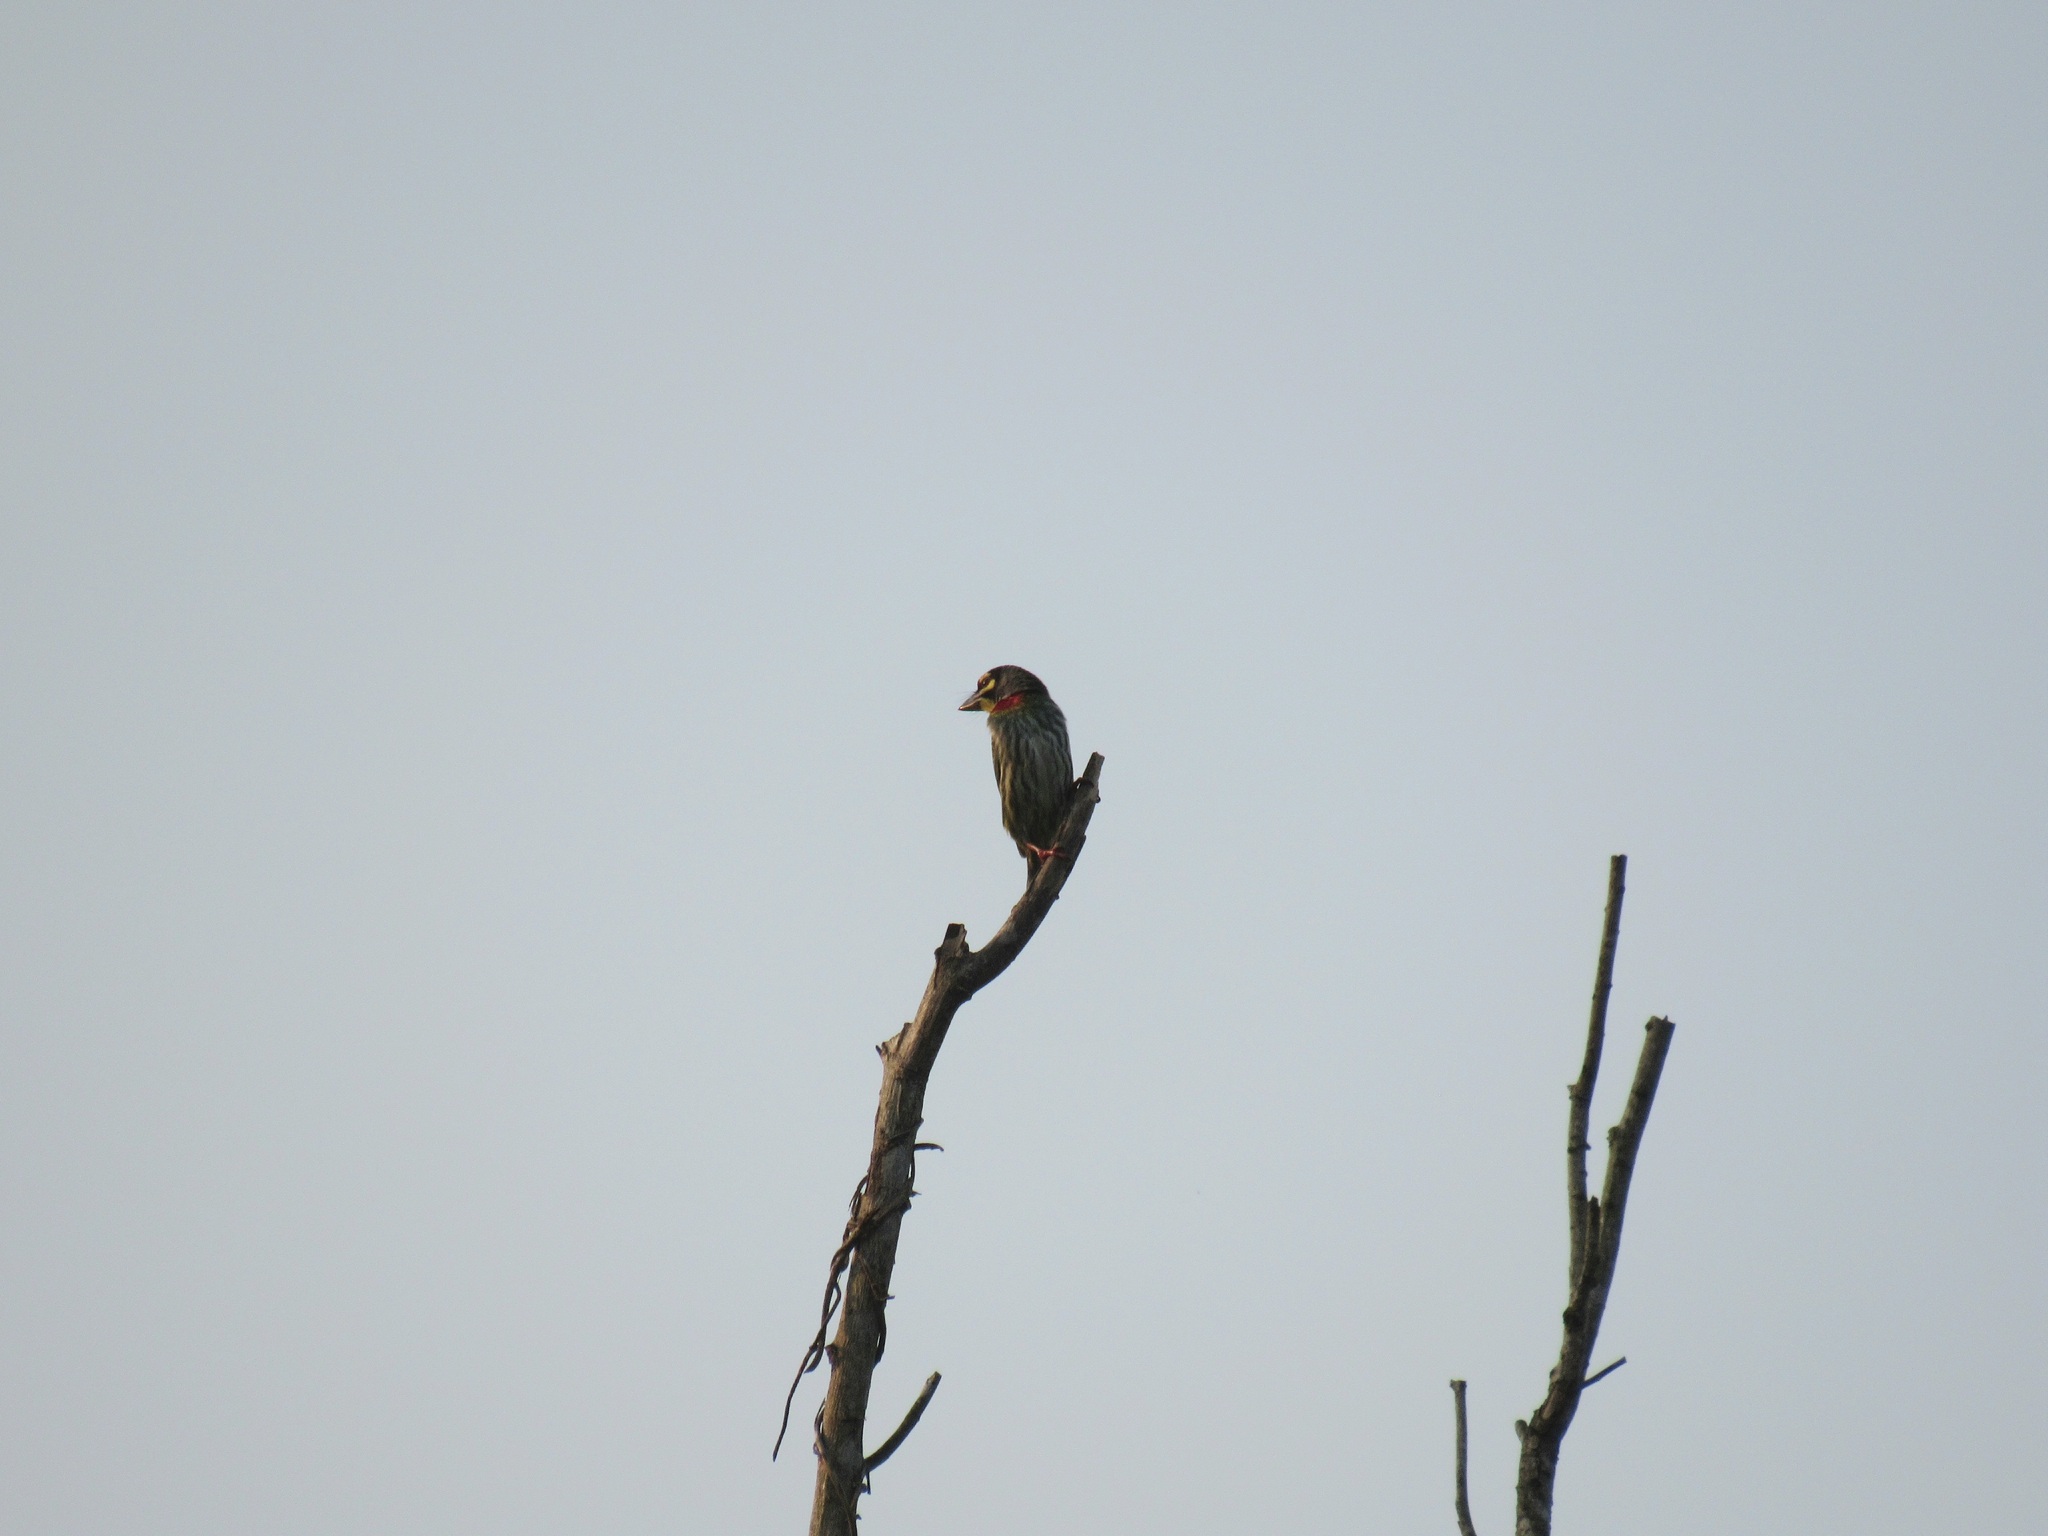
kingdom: Animalia
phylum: Chordata
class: Aves
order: Piciformes
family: Megalaimidae
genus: Psilopogon
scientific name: Psilopogon haemacephalus
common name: Coppersmith barbet
